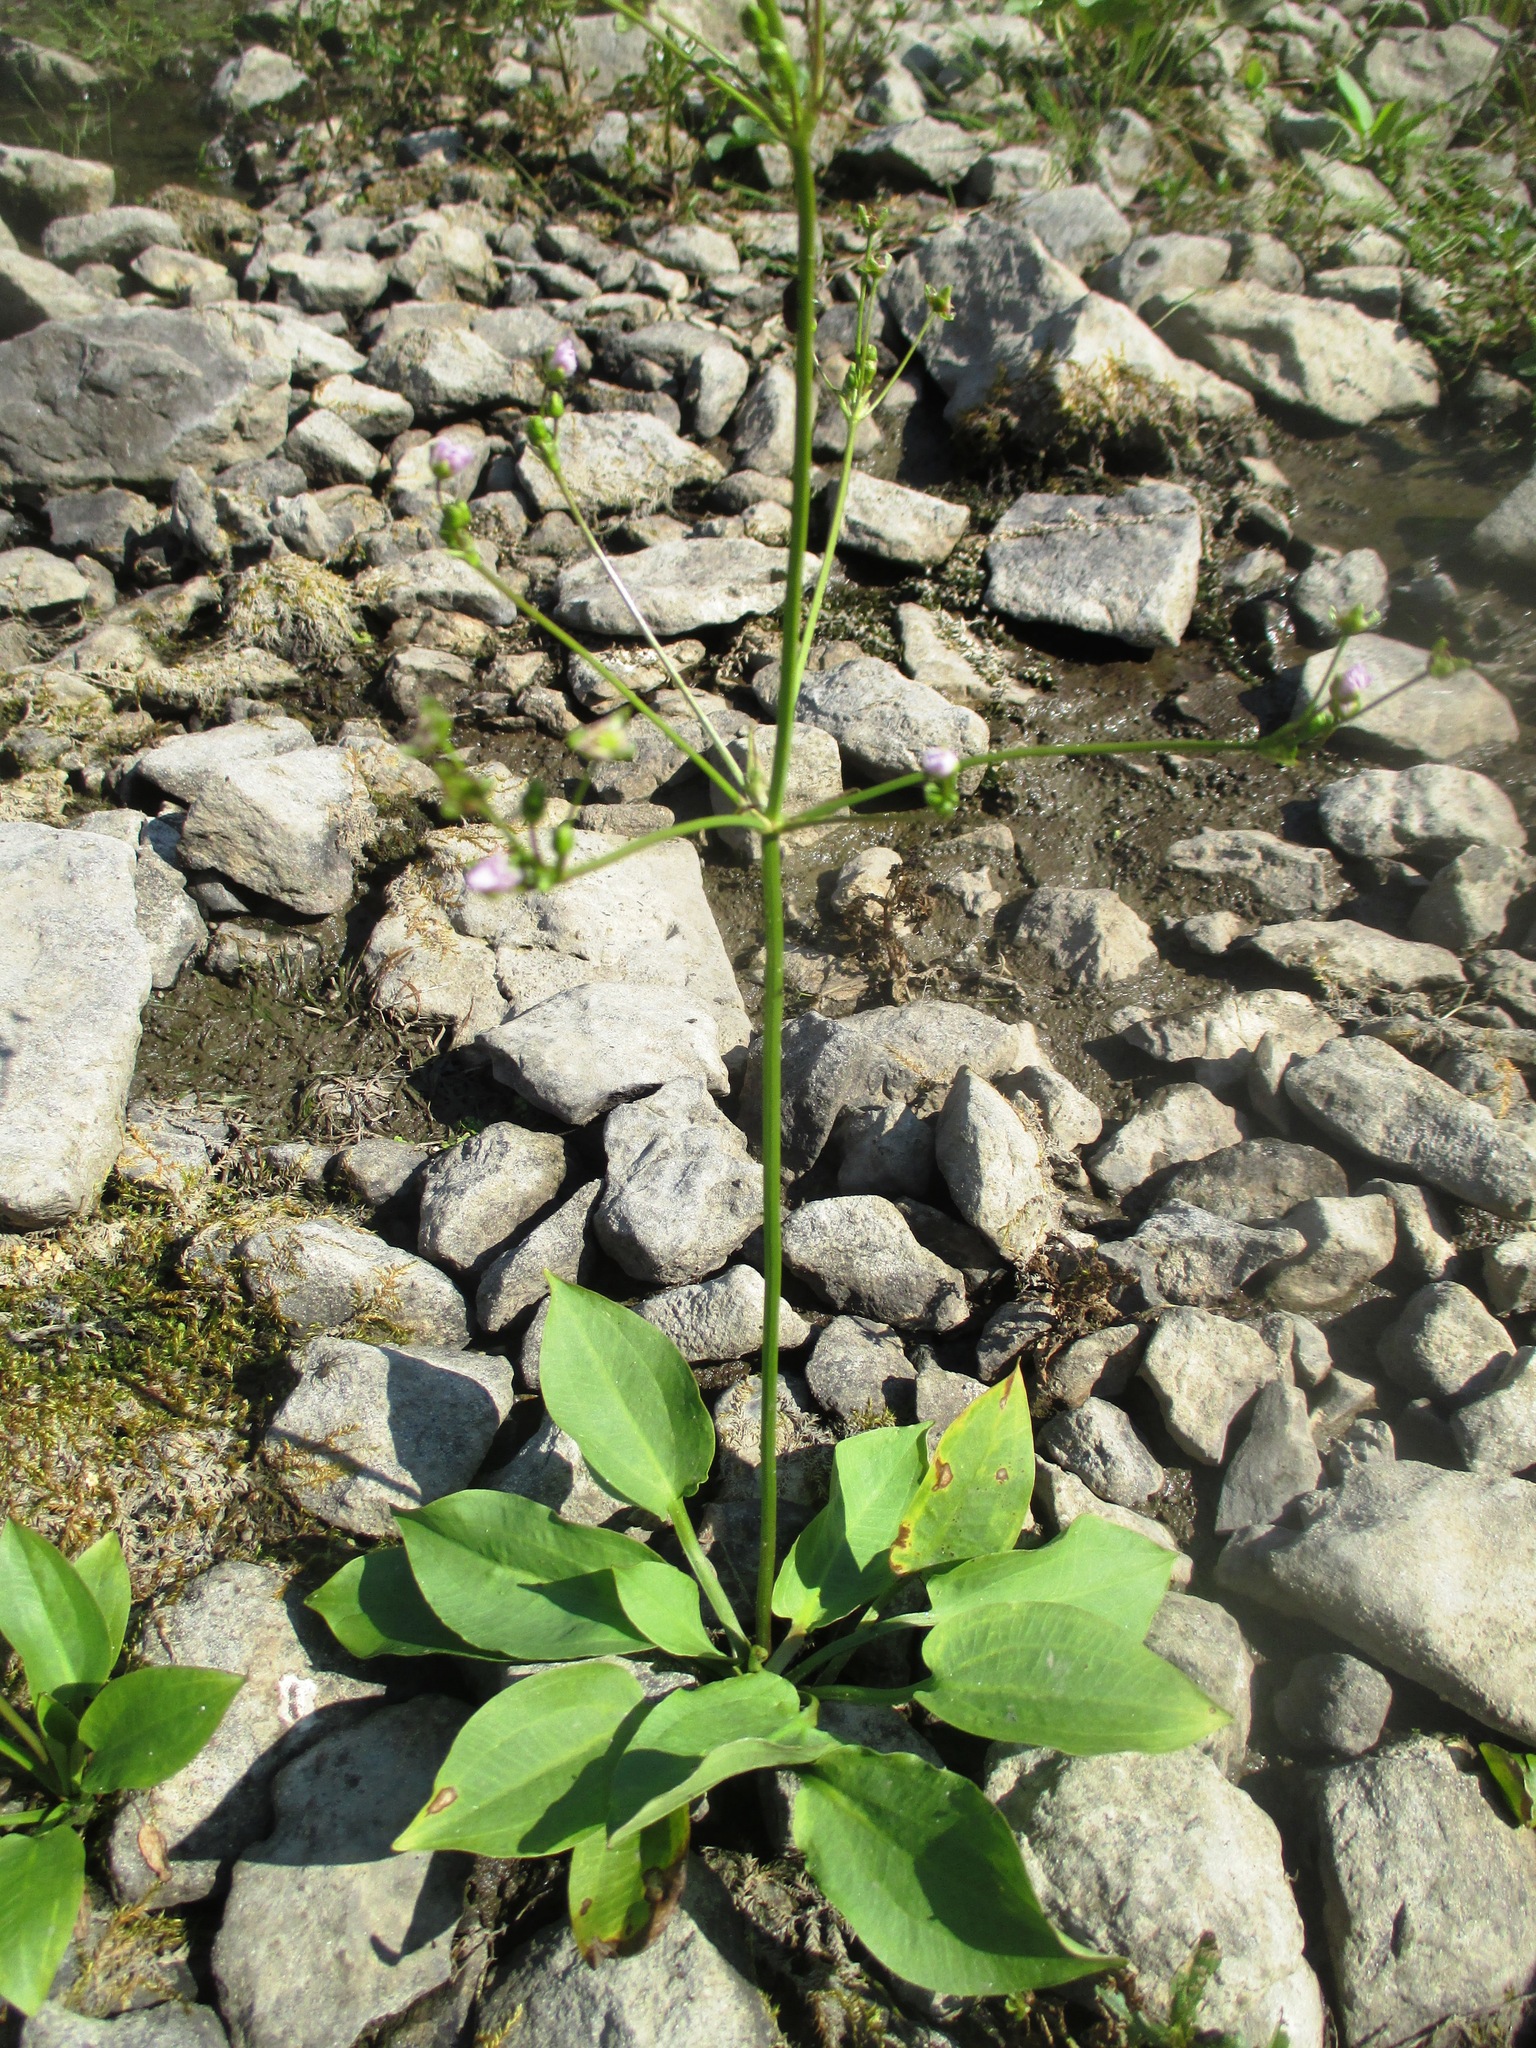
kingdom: Plantae
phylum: Tracheophyta
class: Liliopsida
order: Alismatales
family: Alismataceae
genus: Alisma
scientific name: Alisma plantago-aquatica
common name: Water-plantain
